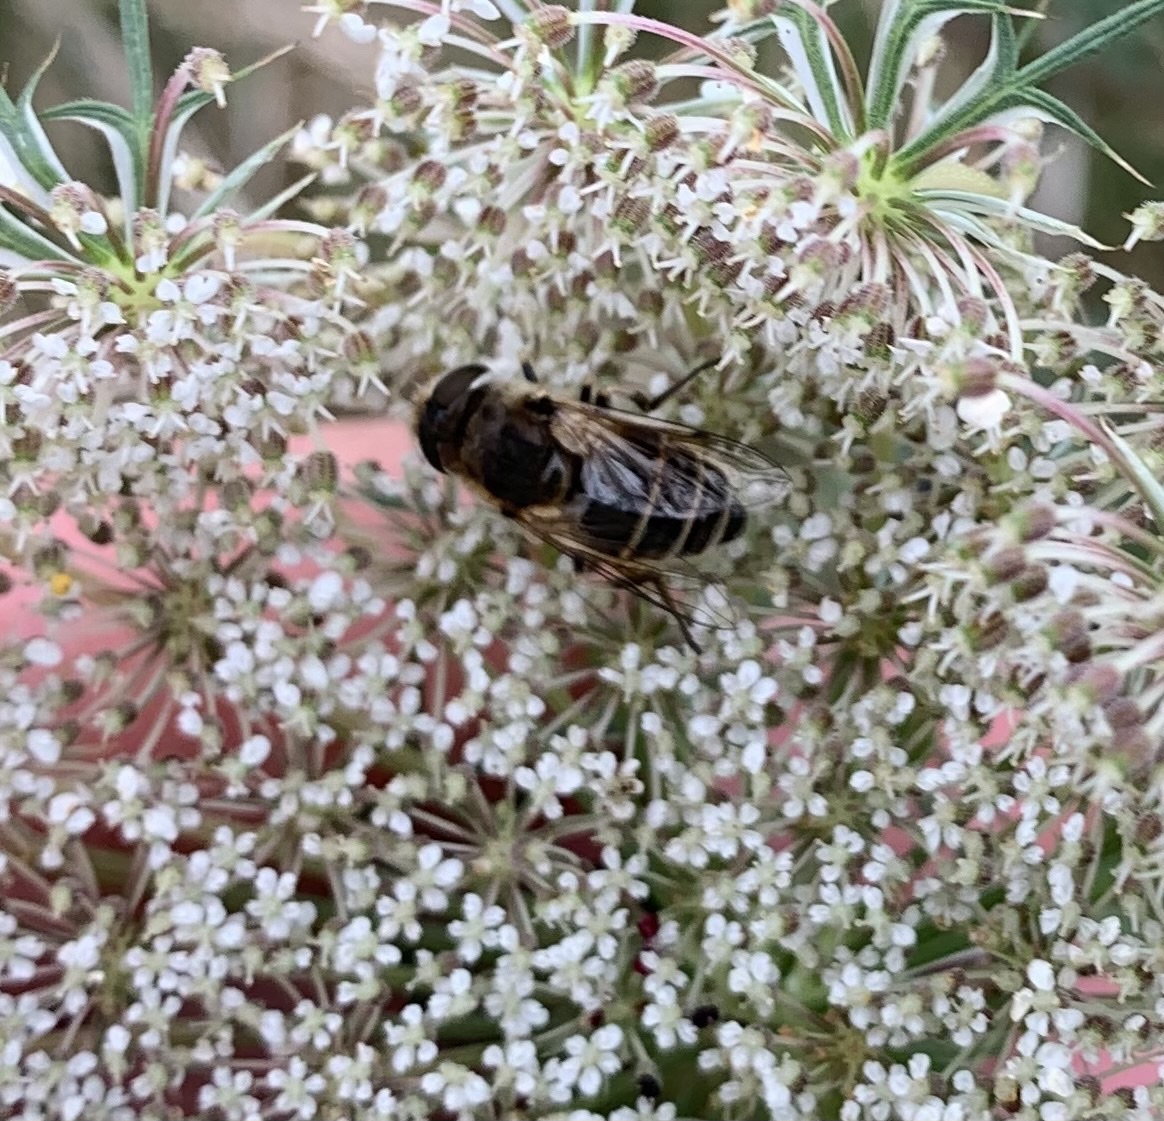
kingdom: Animalia
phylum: Arthropoda
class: Insecta
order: Diptera
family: Syrphidae
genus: Eoseristalis
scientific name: Eoseristalis
